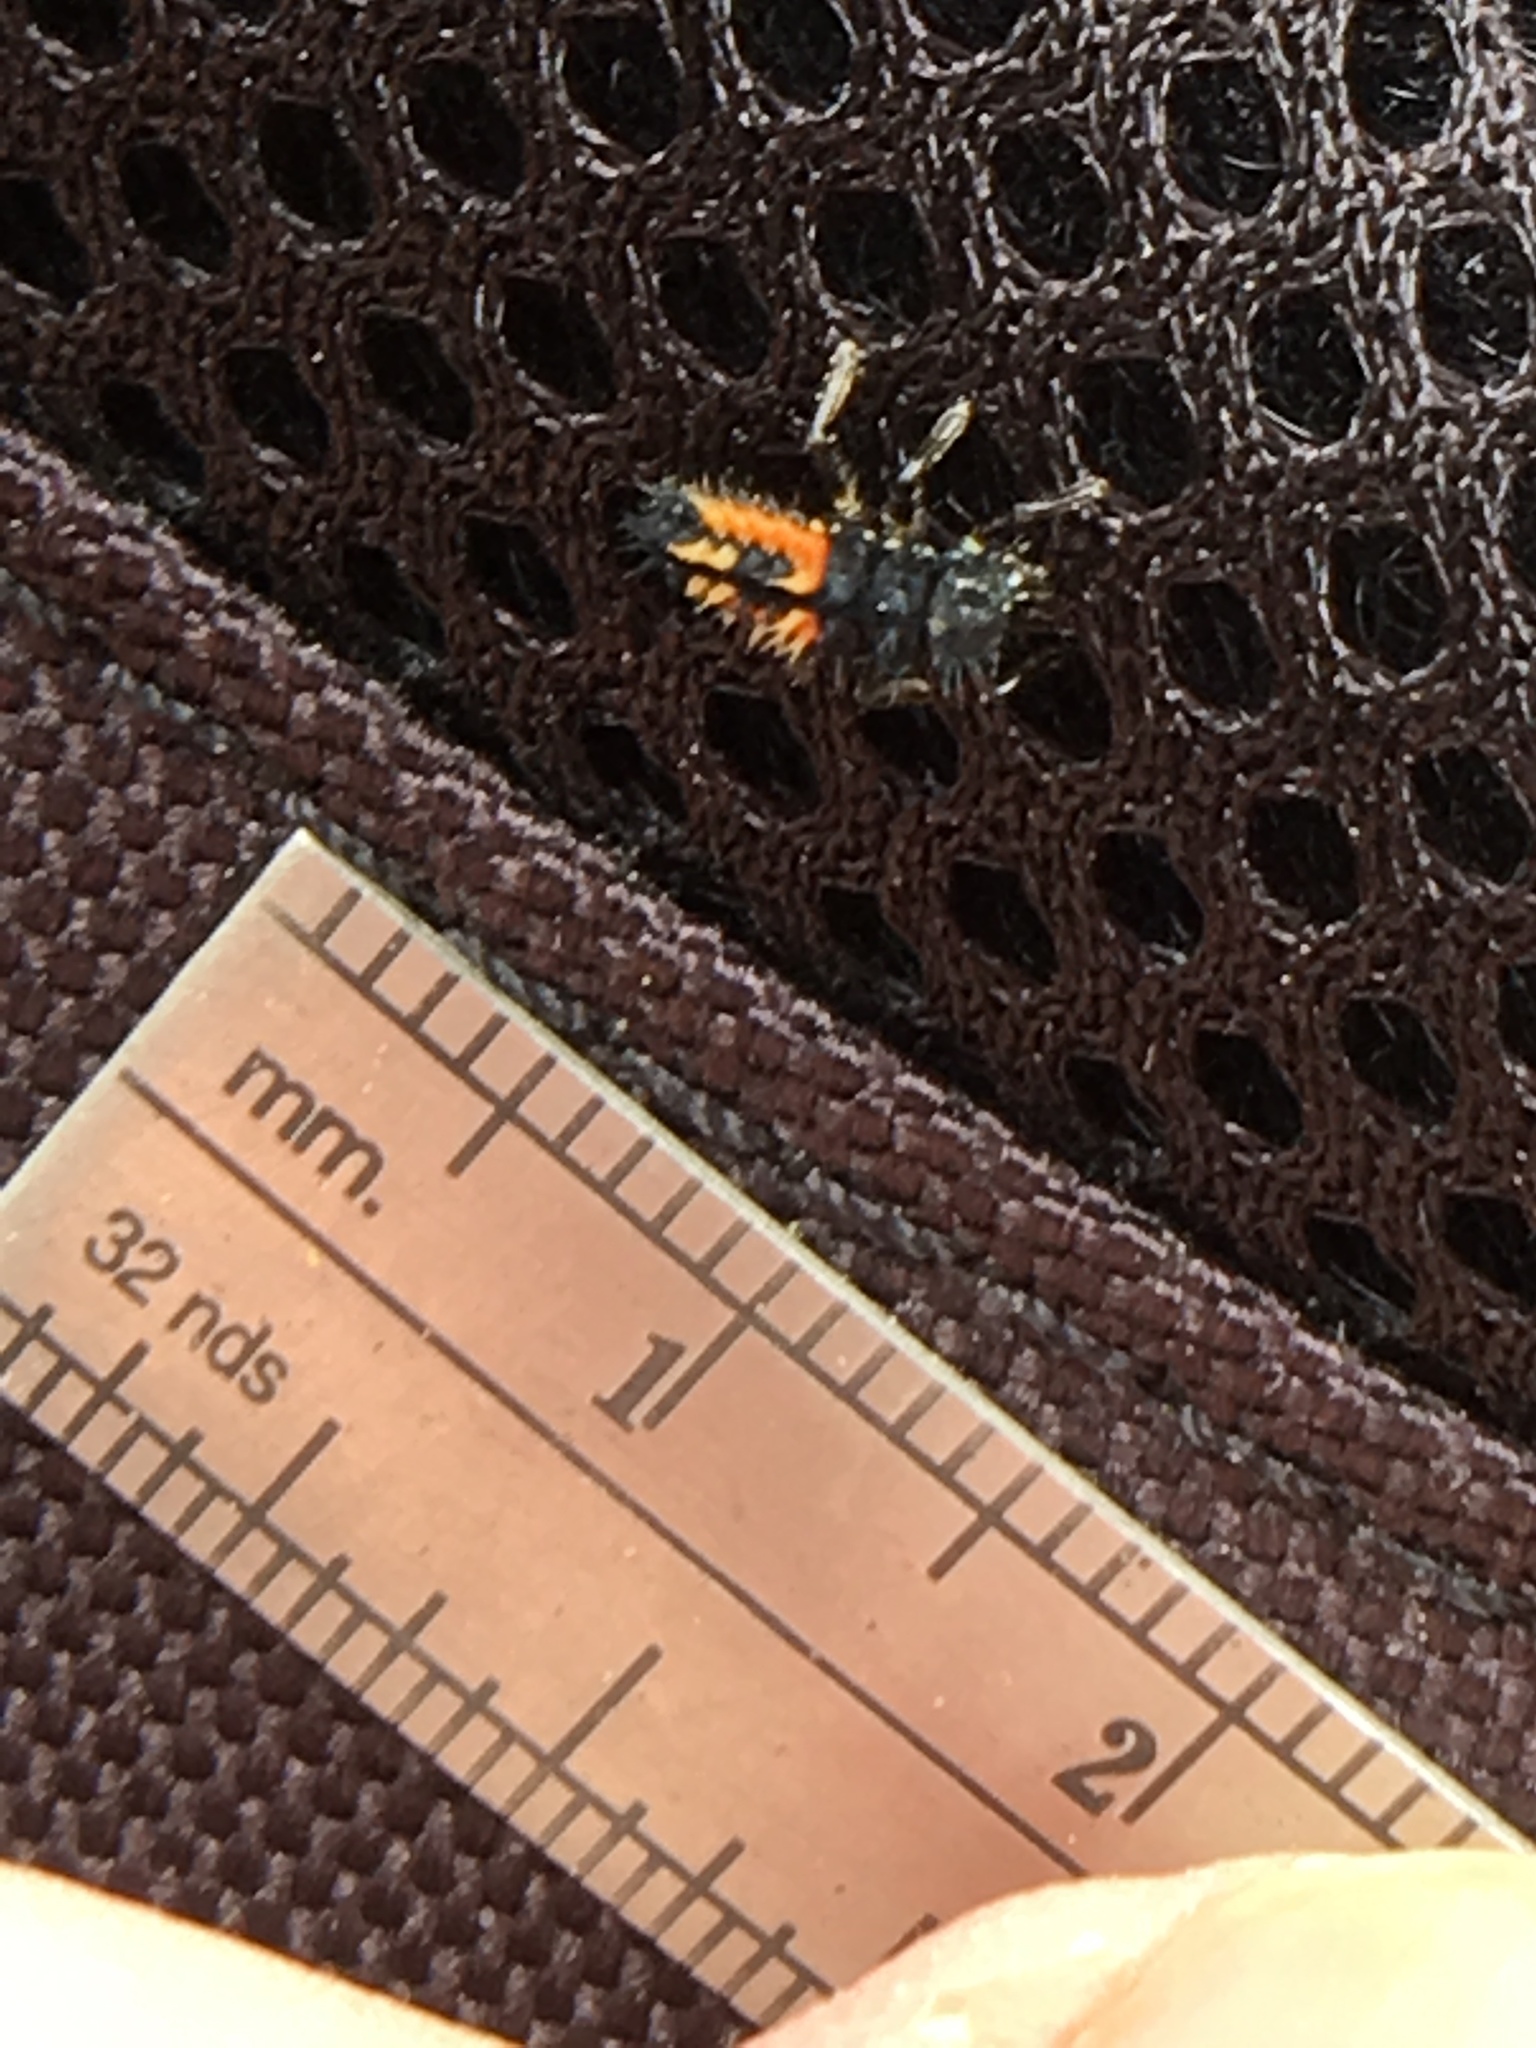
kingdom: Animalia
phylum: Arthropoda
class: Insecta
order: Coleoptera
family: Coccinellidae
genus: Harmonia
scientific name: Harmonia axyridis
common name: Harlequin ladybird
